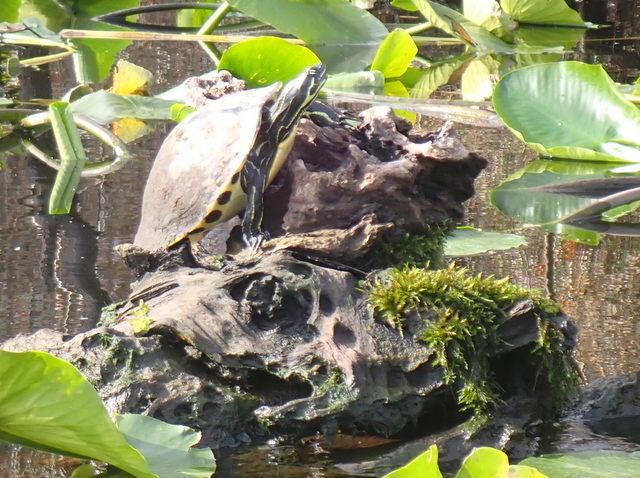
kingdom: Animalia
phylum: Chordata
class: Testudines
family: Emydidae
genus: Pseudemys
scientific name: Pseudemys concinna
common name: Eastern river cooter
